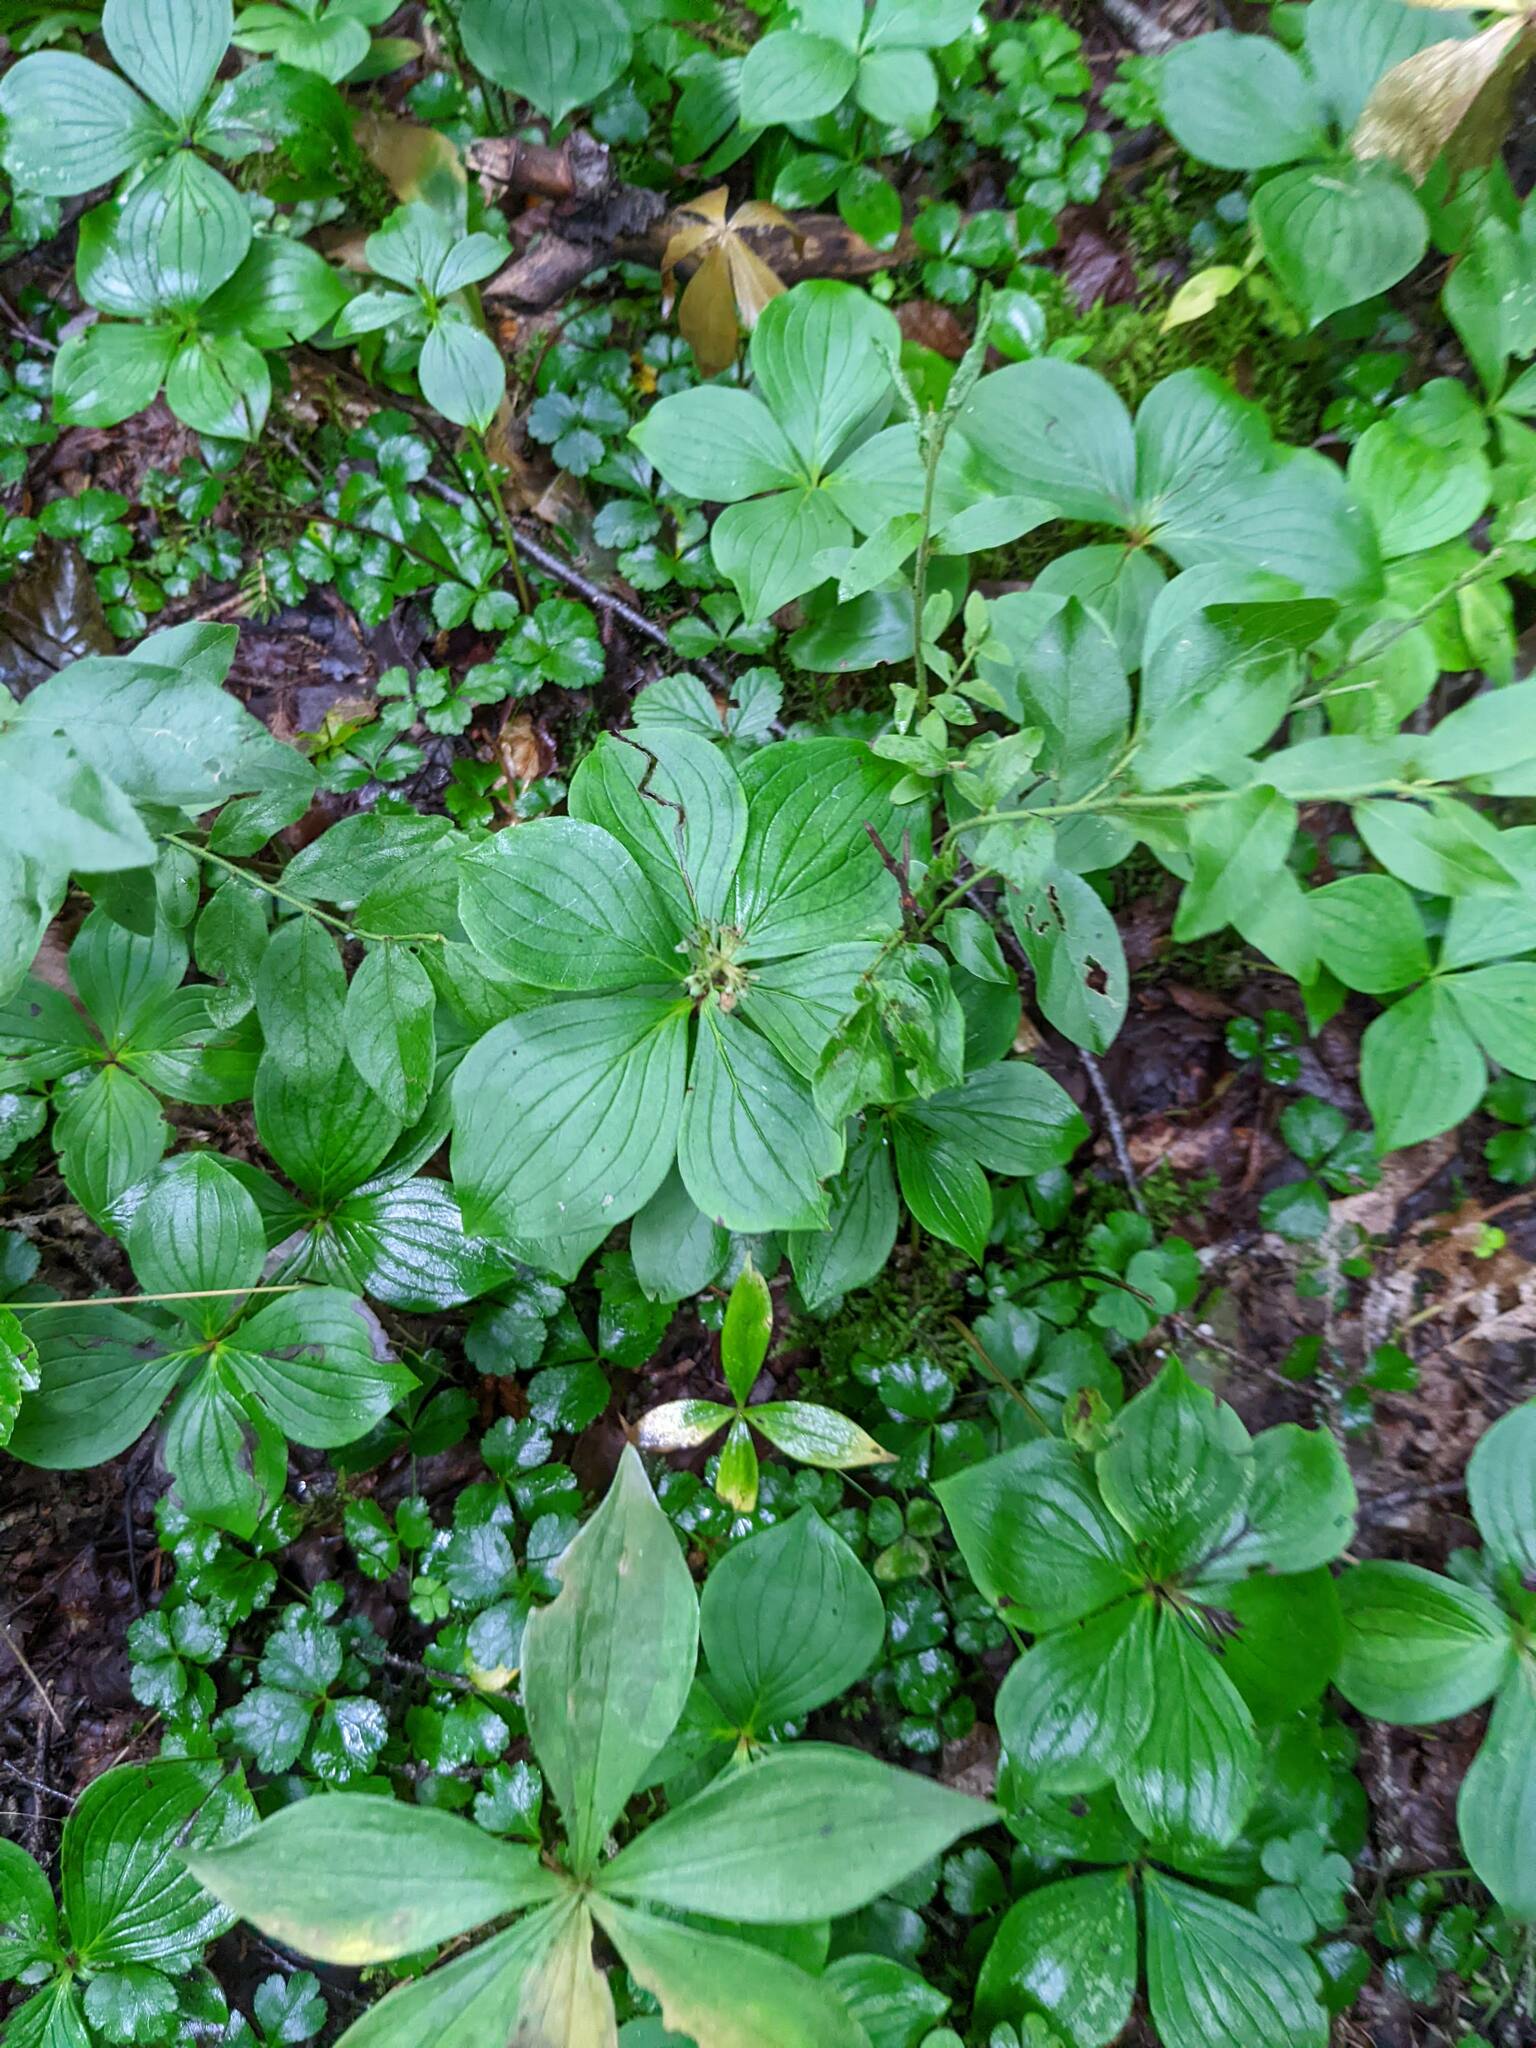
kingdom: Plantae
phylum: Tracheophyta
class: Magnoliopsida
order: Cornales
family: Cornaceae
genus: Cornus
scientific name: Cornus canadensis
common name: Creeping dogwood
